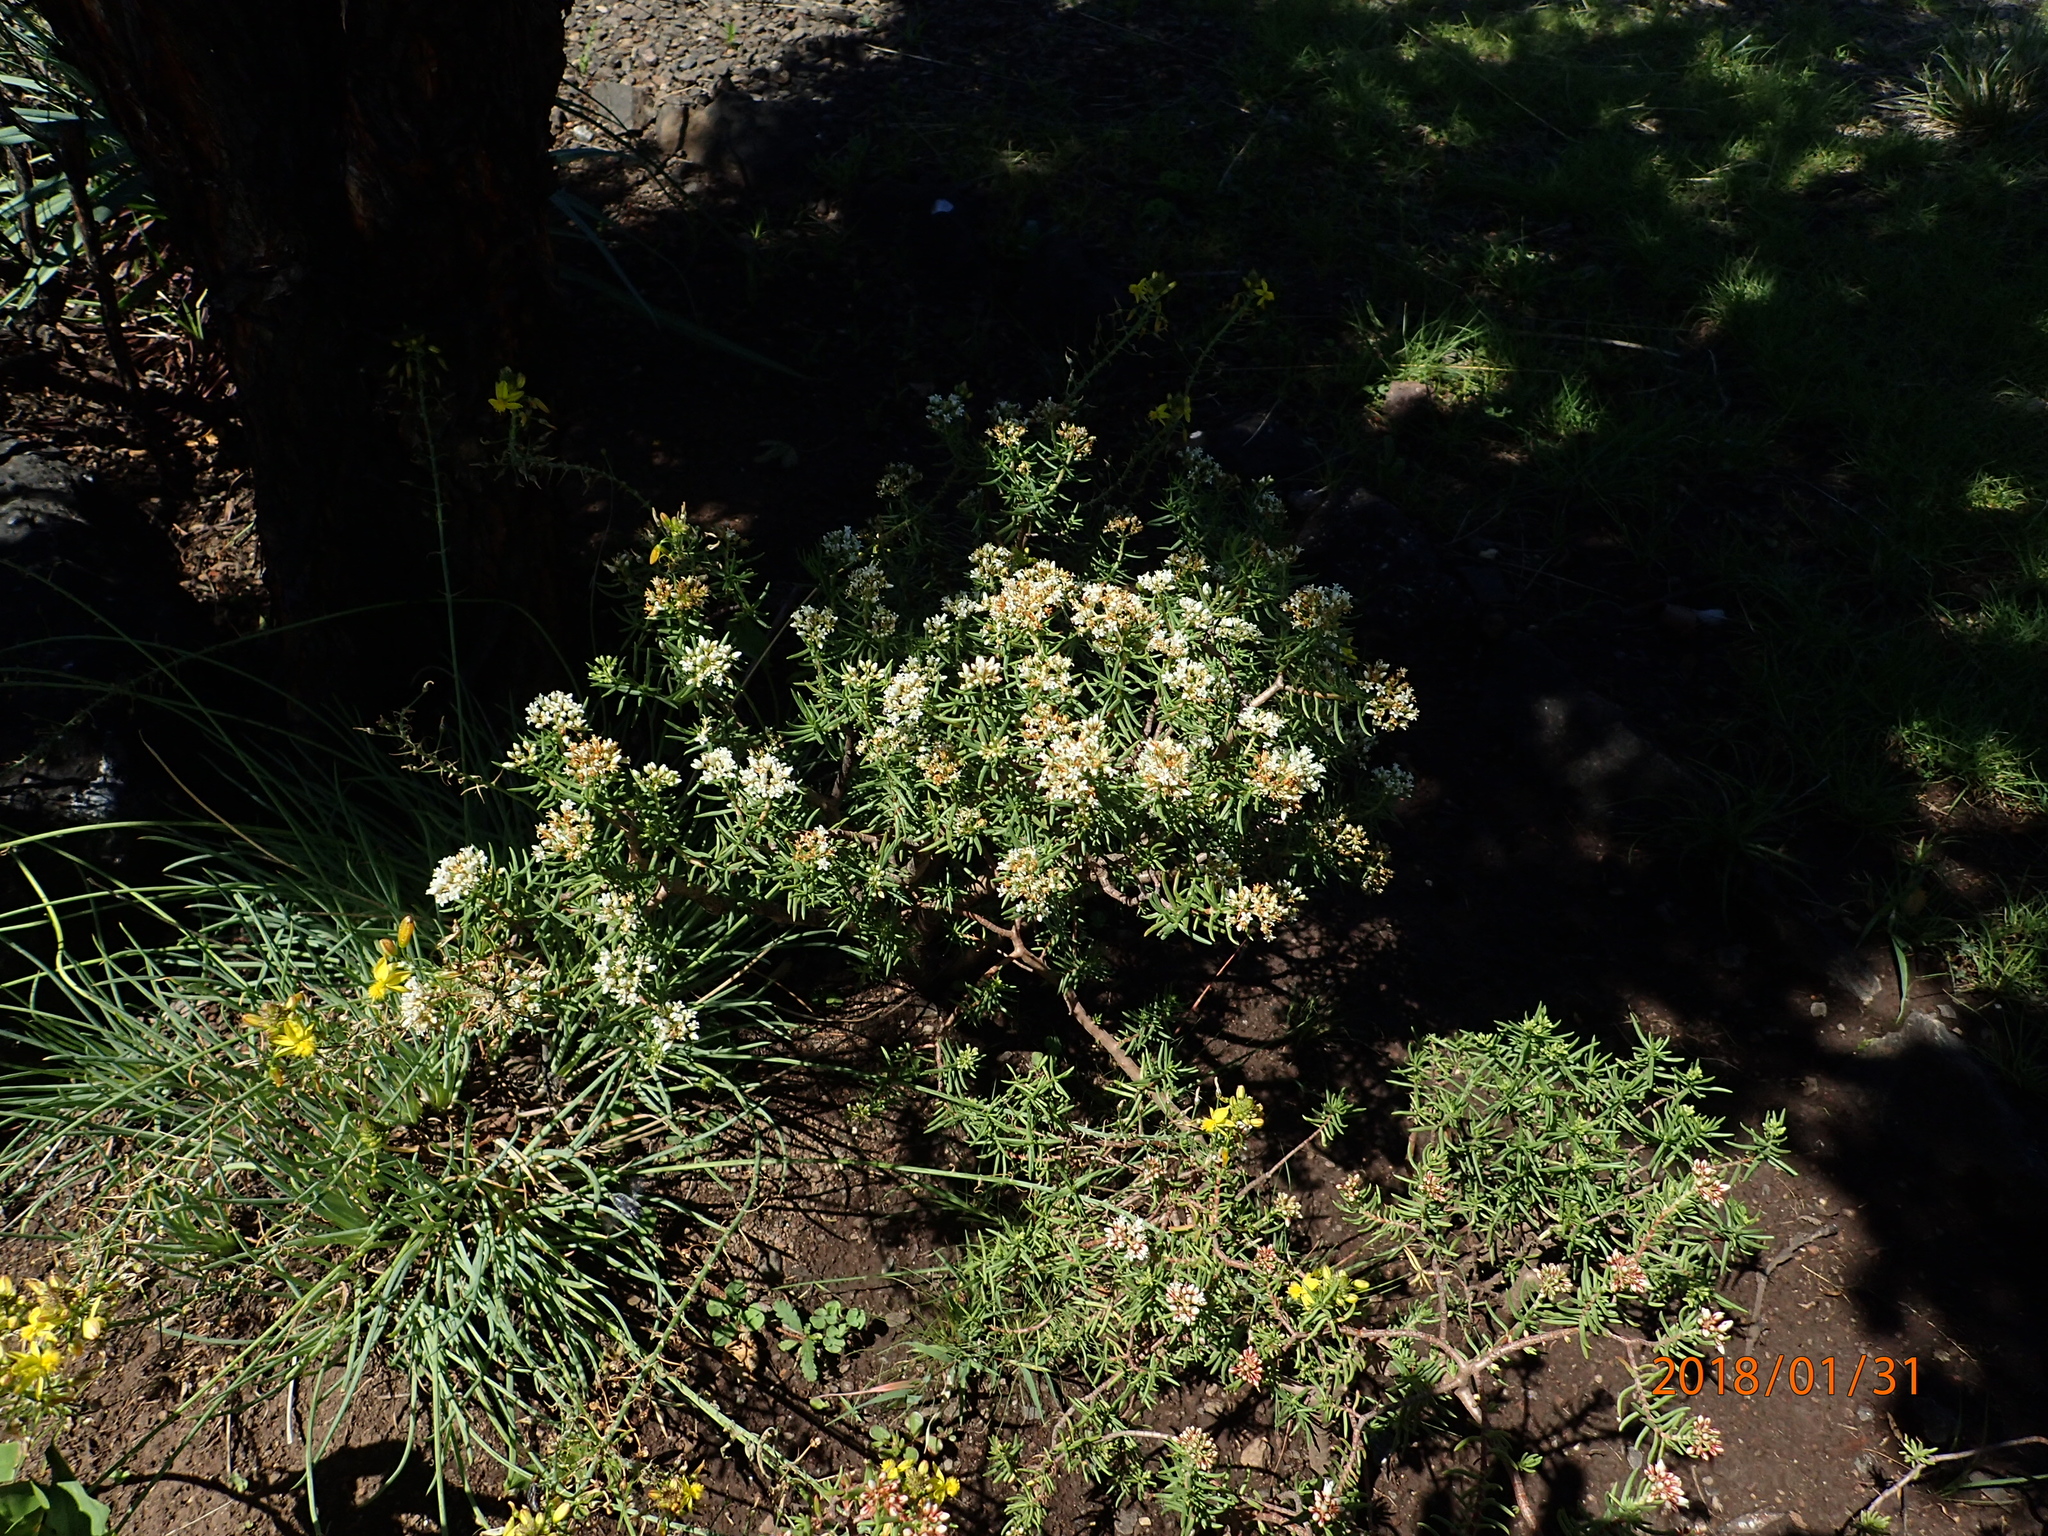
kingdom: Plantae
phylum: Tracheophyta
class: Magnoliopsida
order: Saxifragales
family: Crassulaceae
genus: Crassula
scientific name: Crassula dependens
